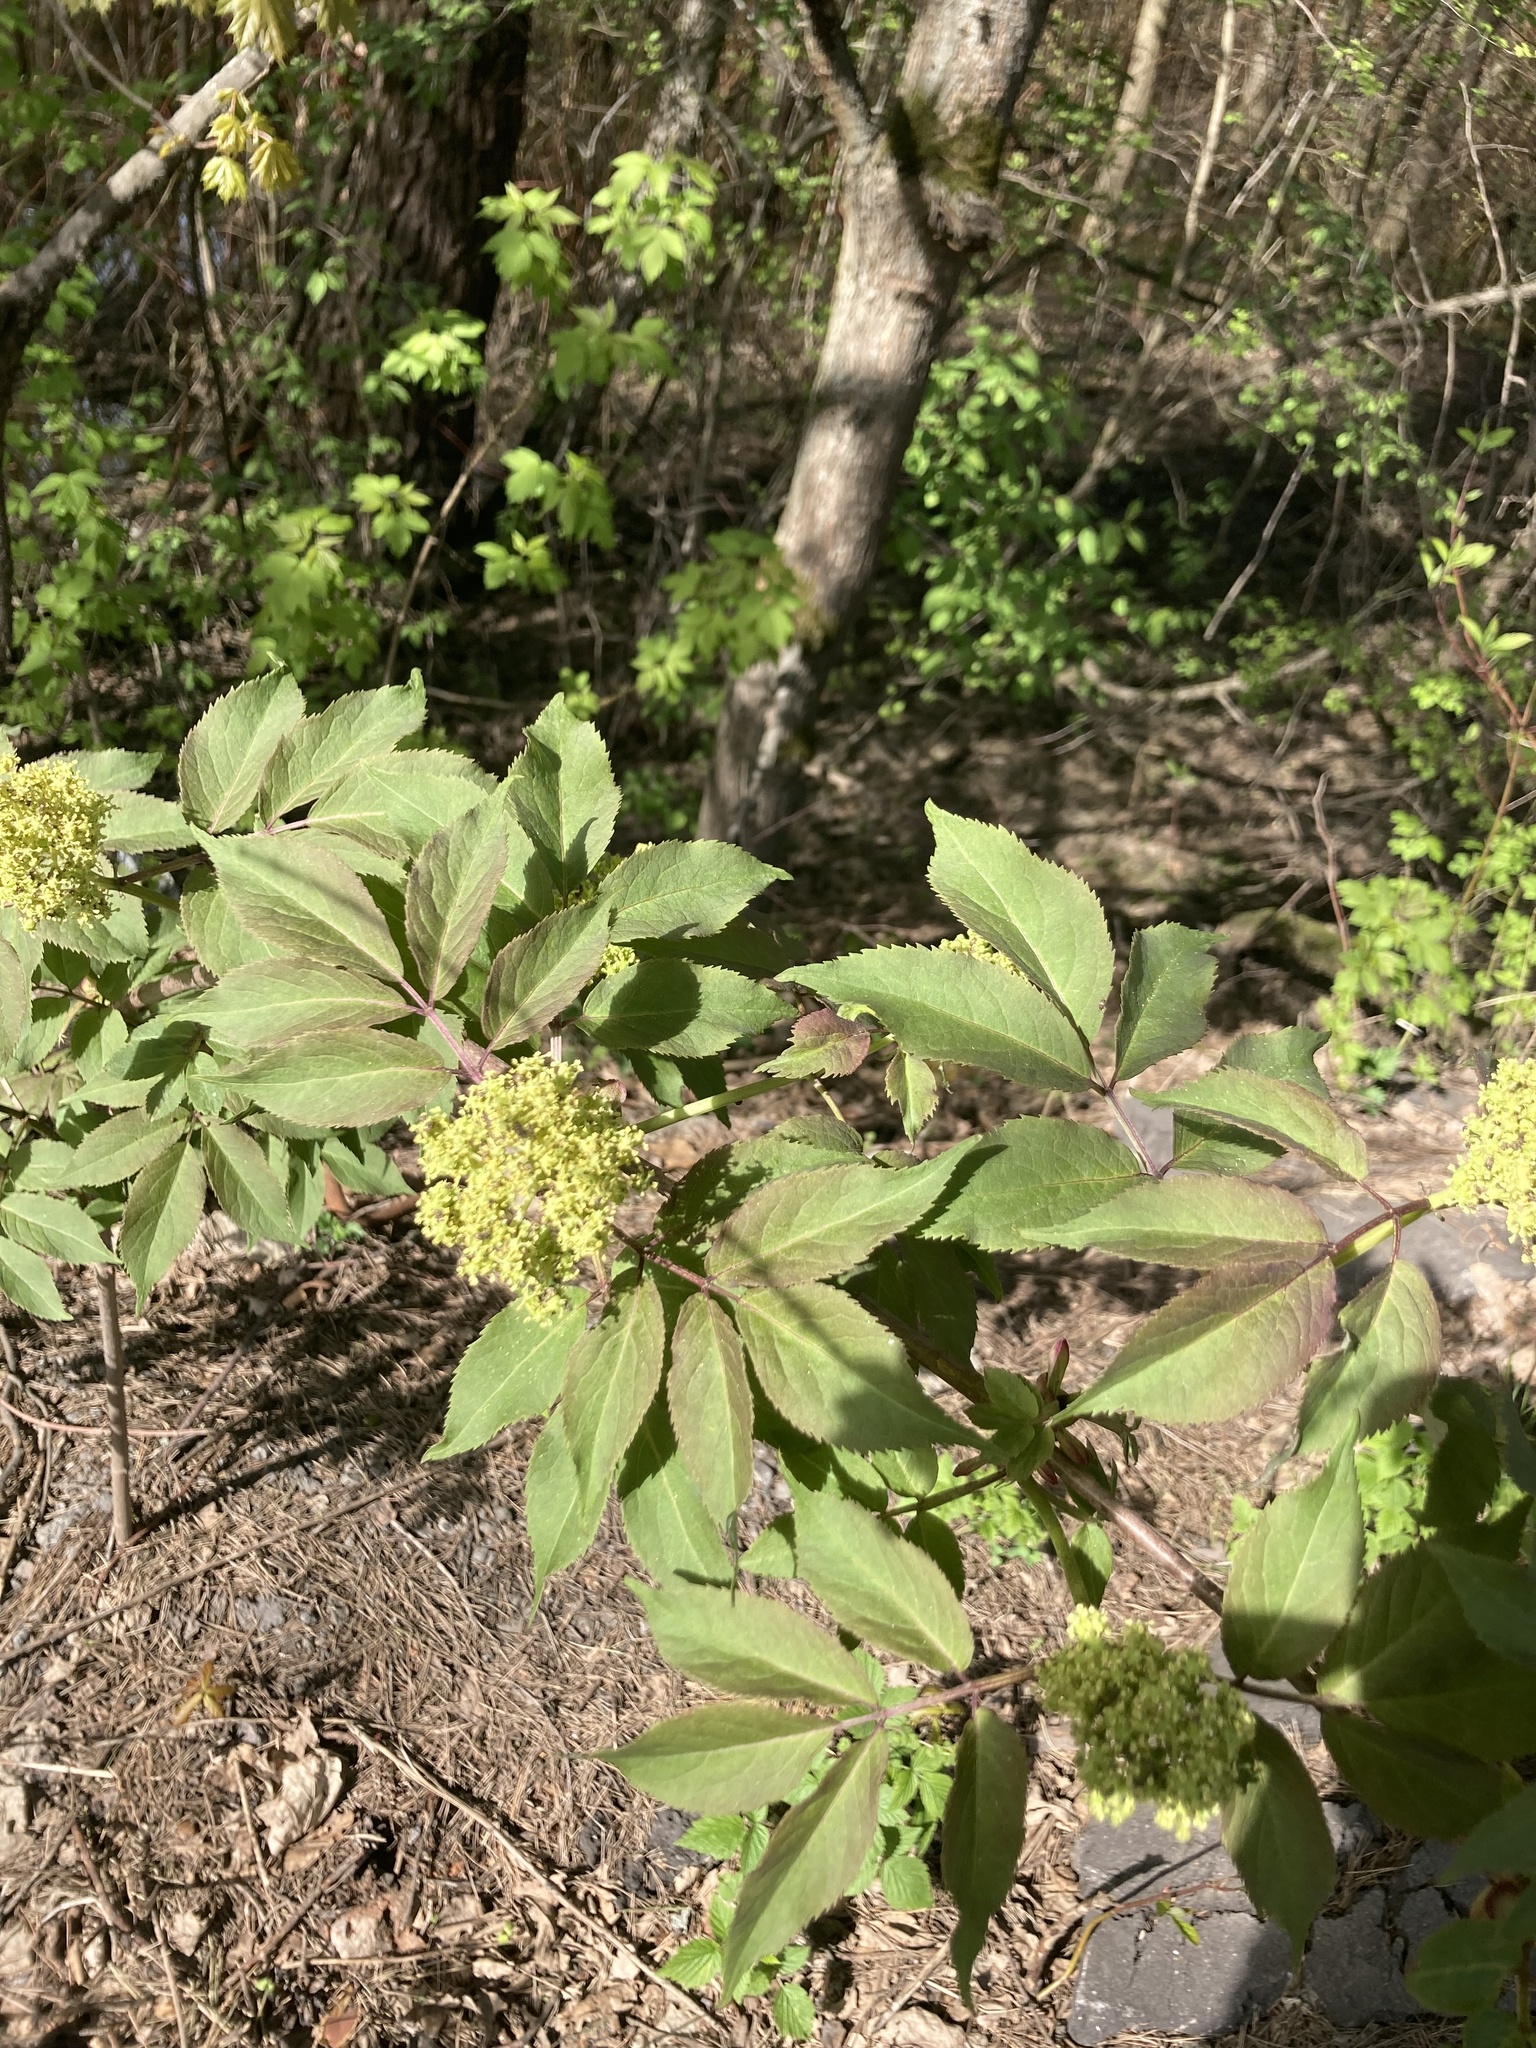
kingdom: Plantae
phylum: Tracheophyta
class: Magnoliopsida
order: Dipsacales
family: Viburnaceae
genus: Sambucus
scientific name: Sambucus racemosa
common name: Red-berried elder
